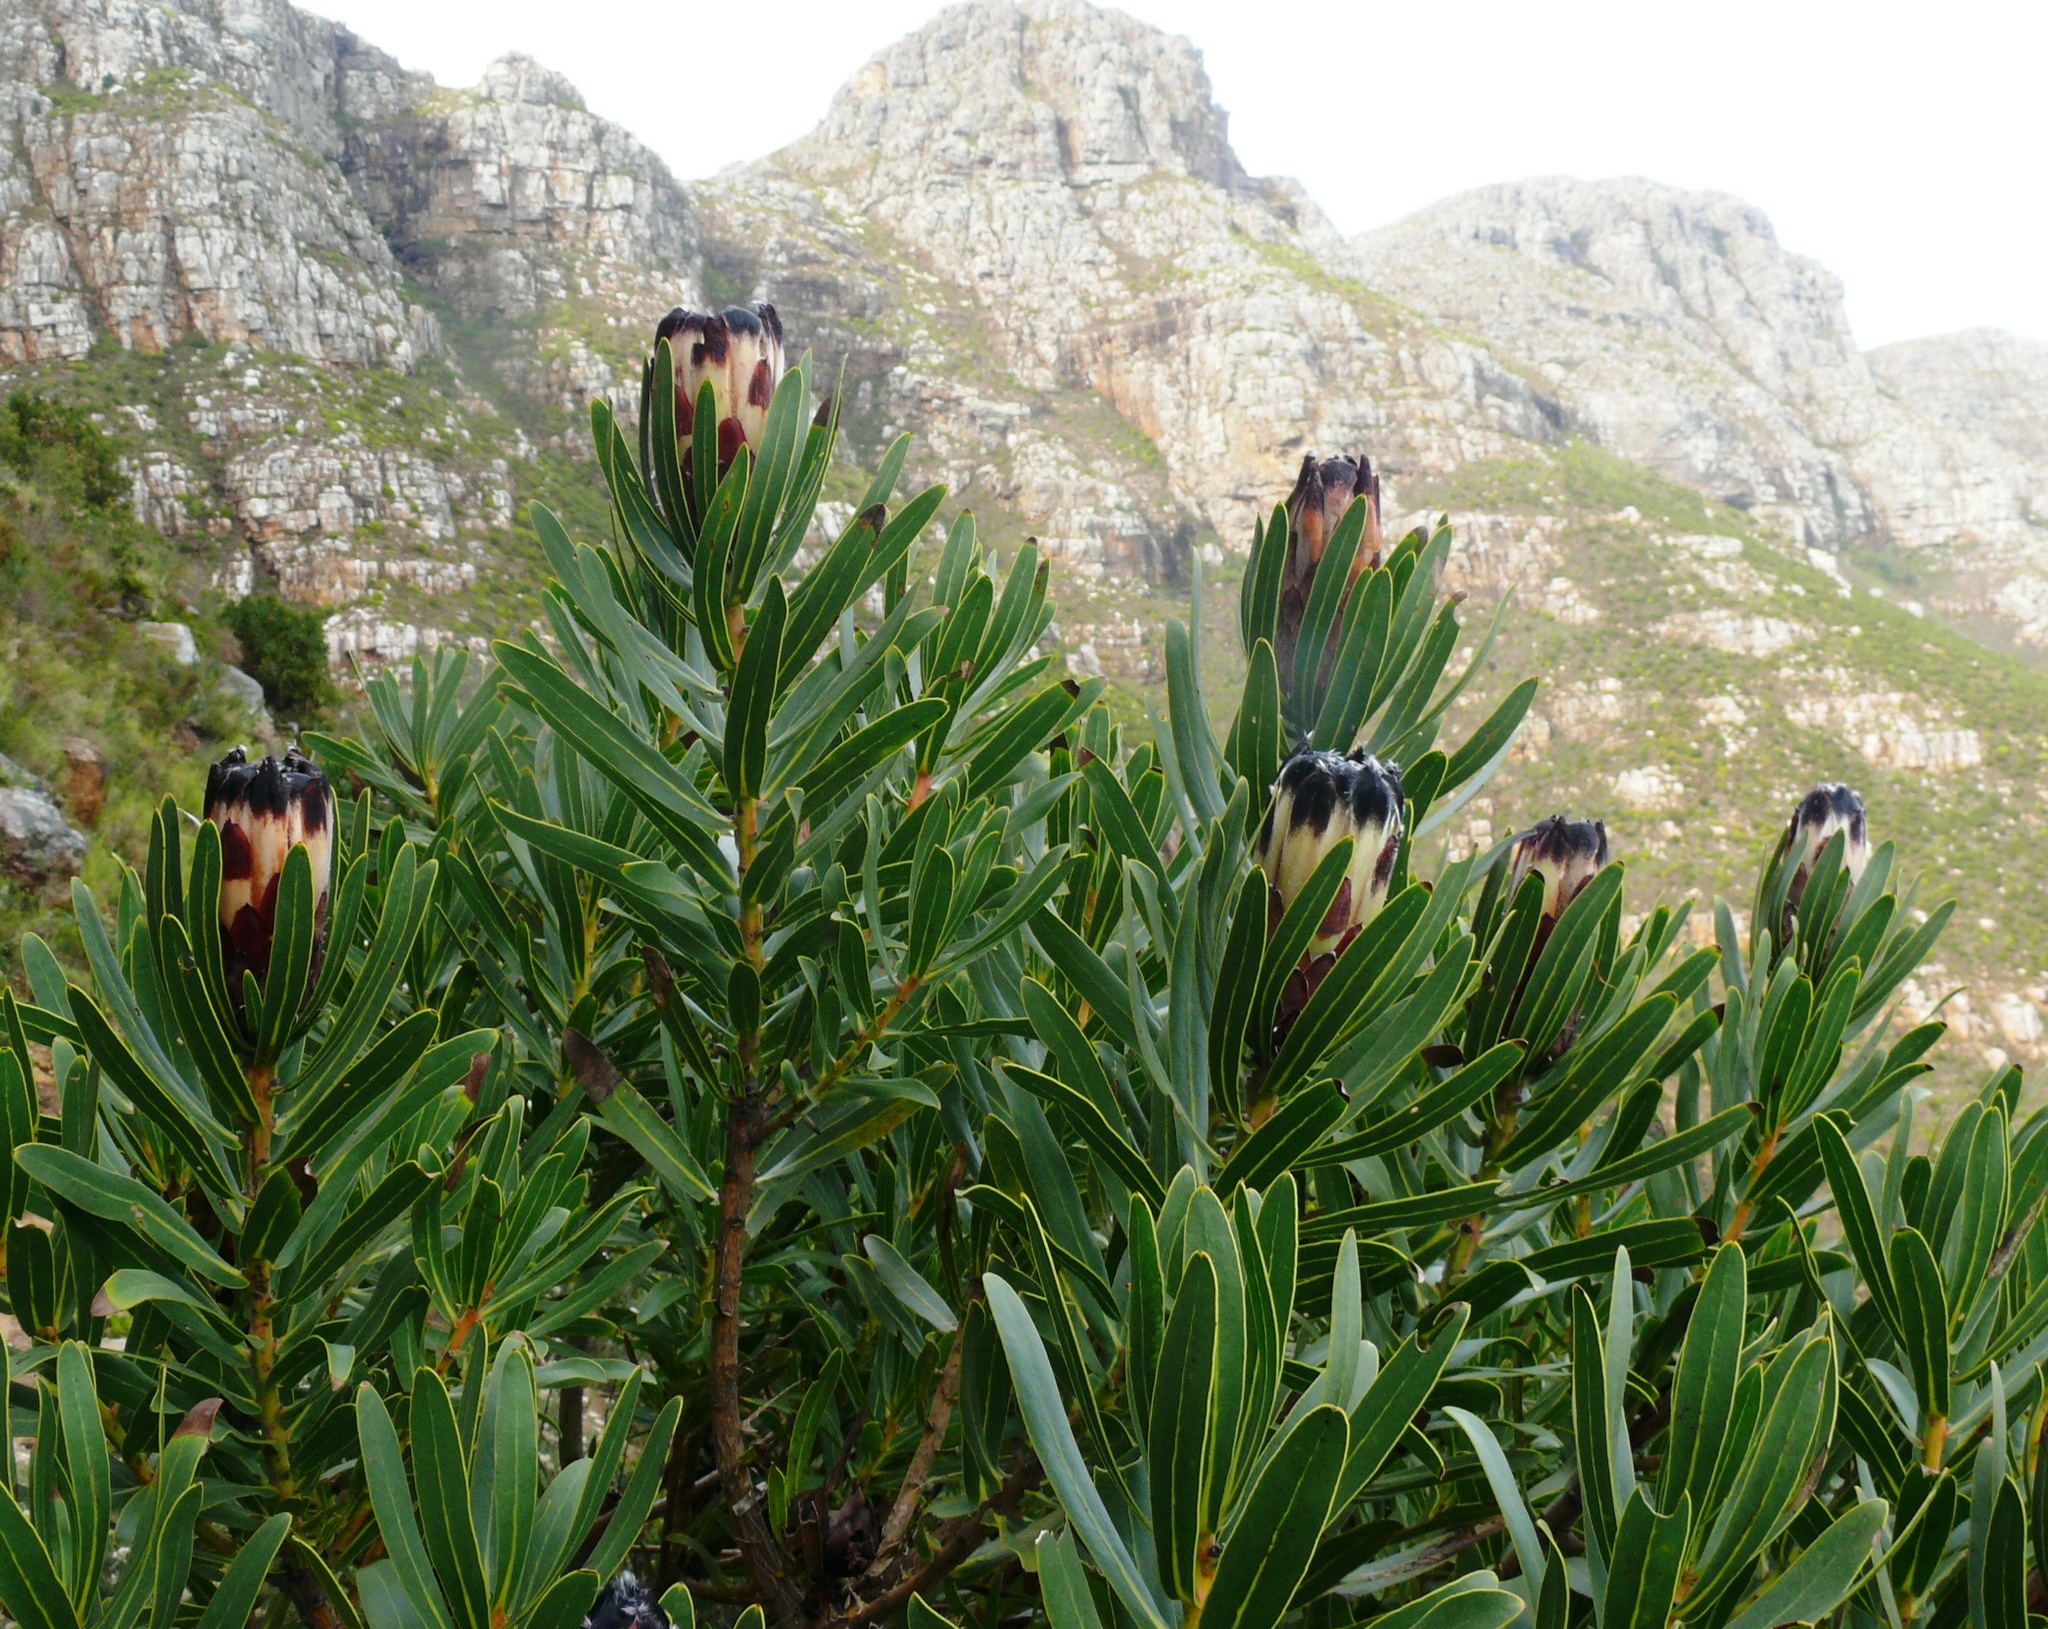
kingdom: Plantae
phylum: Tracheophyta
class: Magnoliopsida
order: Proteales
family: Proteaceae
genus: Protea
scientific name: Protea lepidocarpodendron
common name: Black-bearded protea
